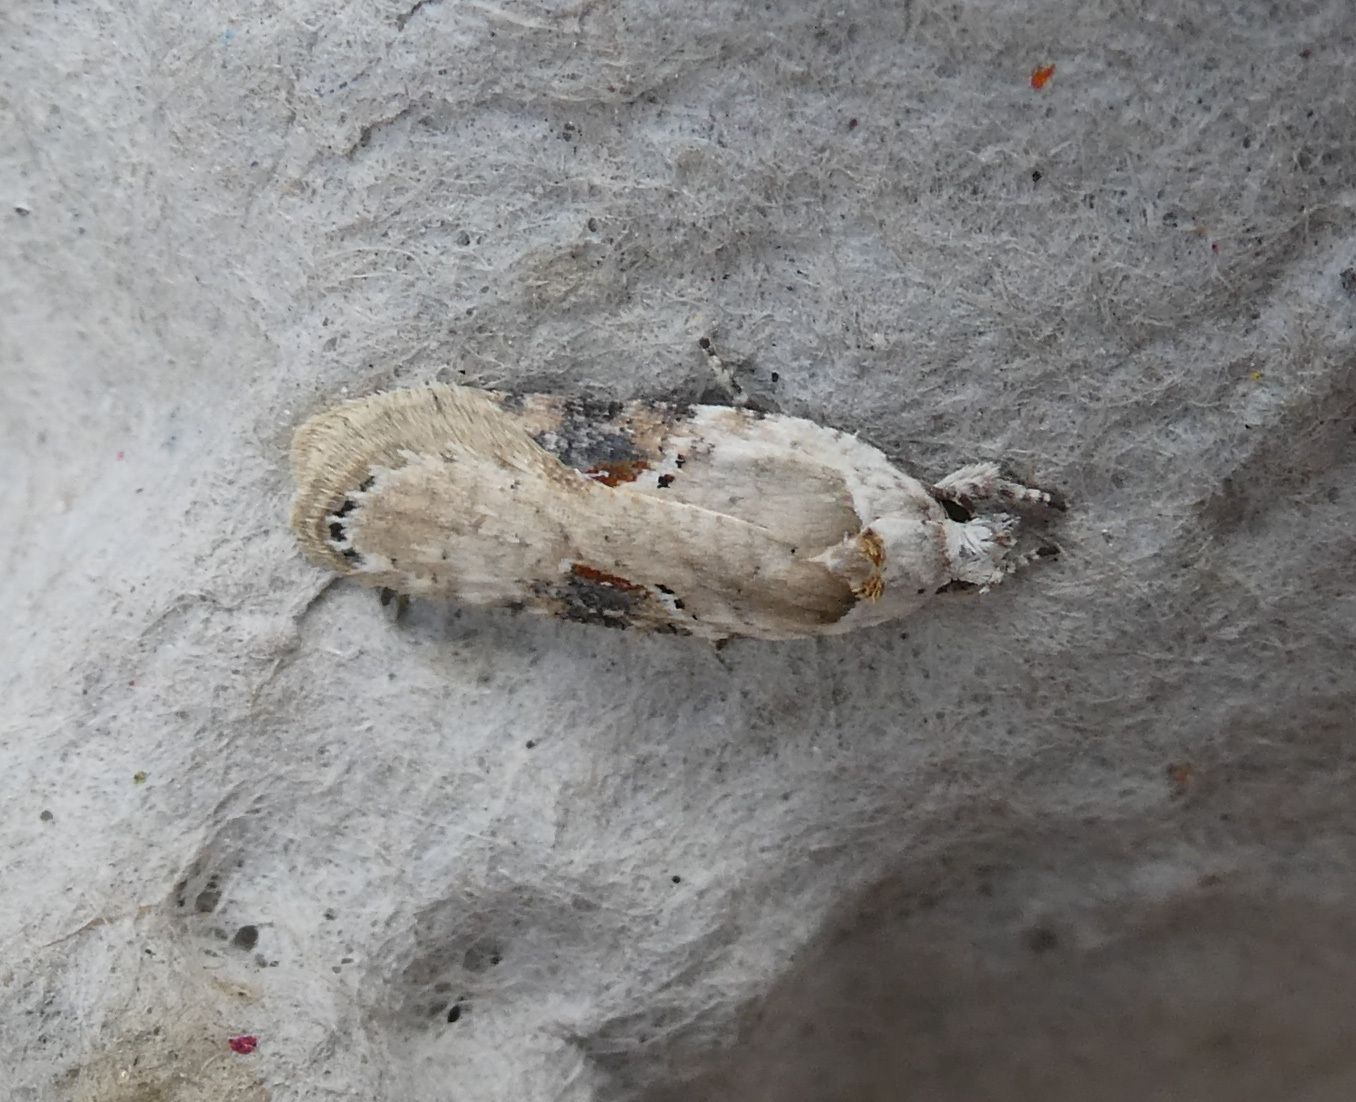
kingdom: Animalia
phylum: Arthropoda
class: Insecta
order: Lepidoptera
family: Depressariidae
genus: Agonopterix
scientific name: Agonopterix alstroemeriana
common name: Moth
